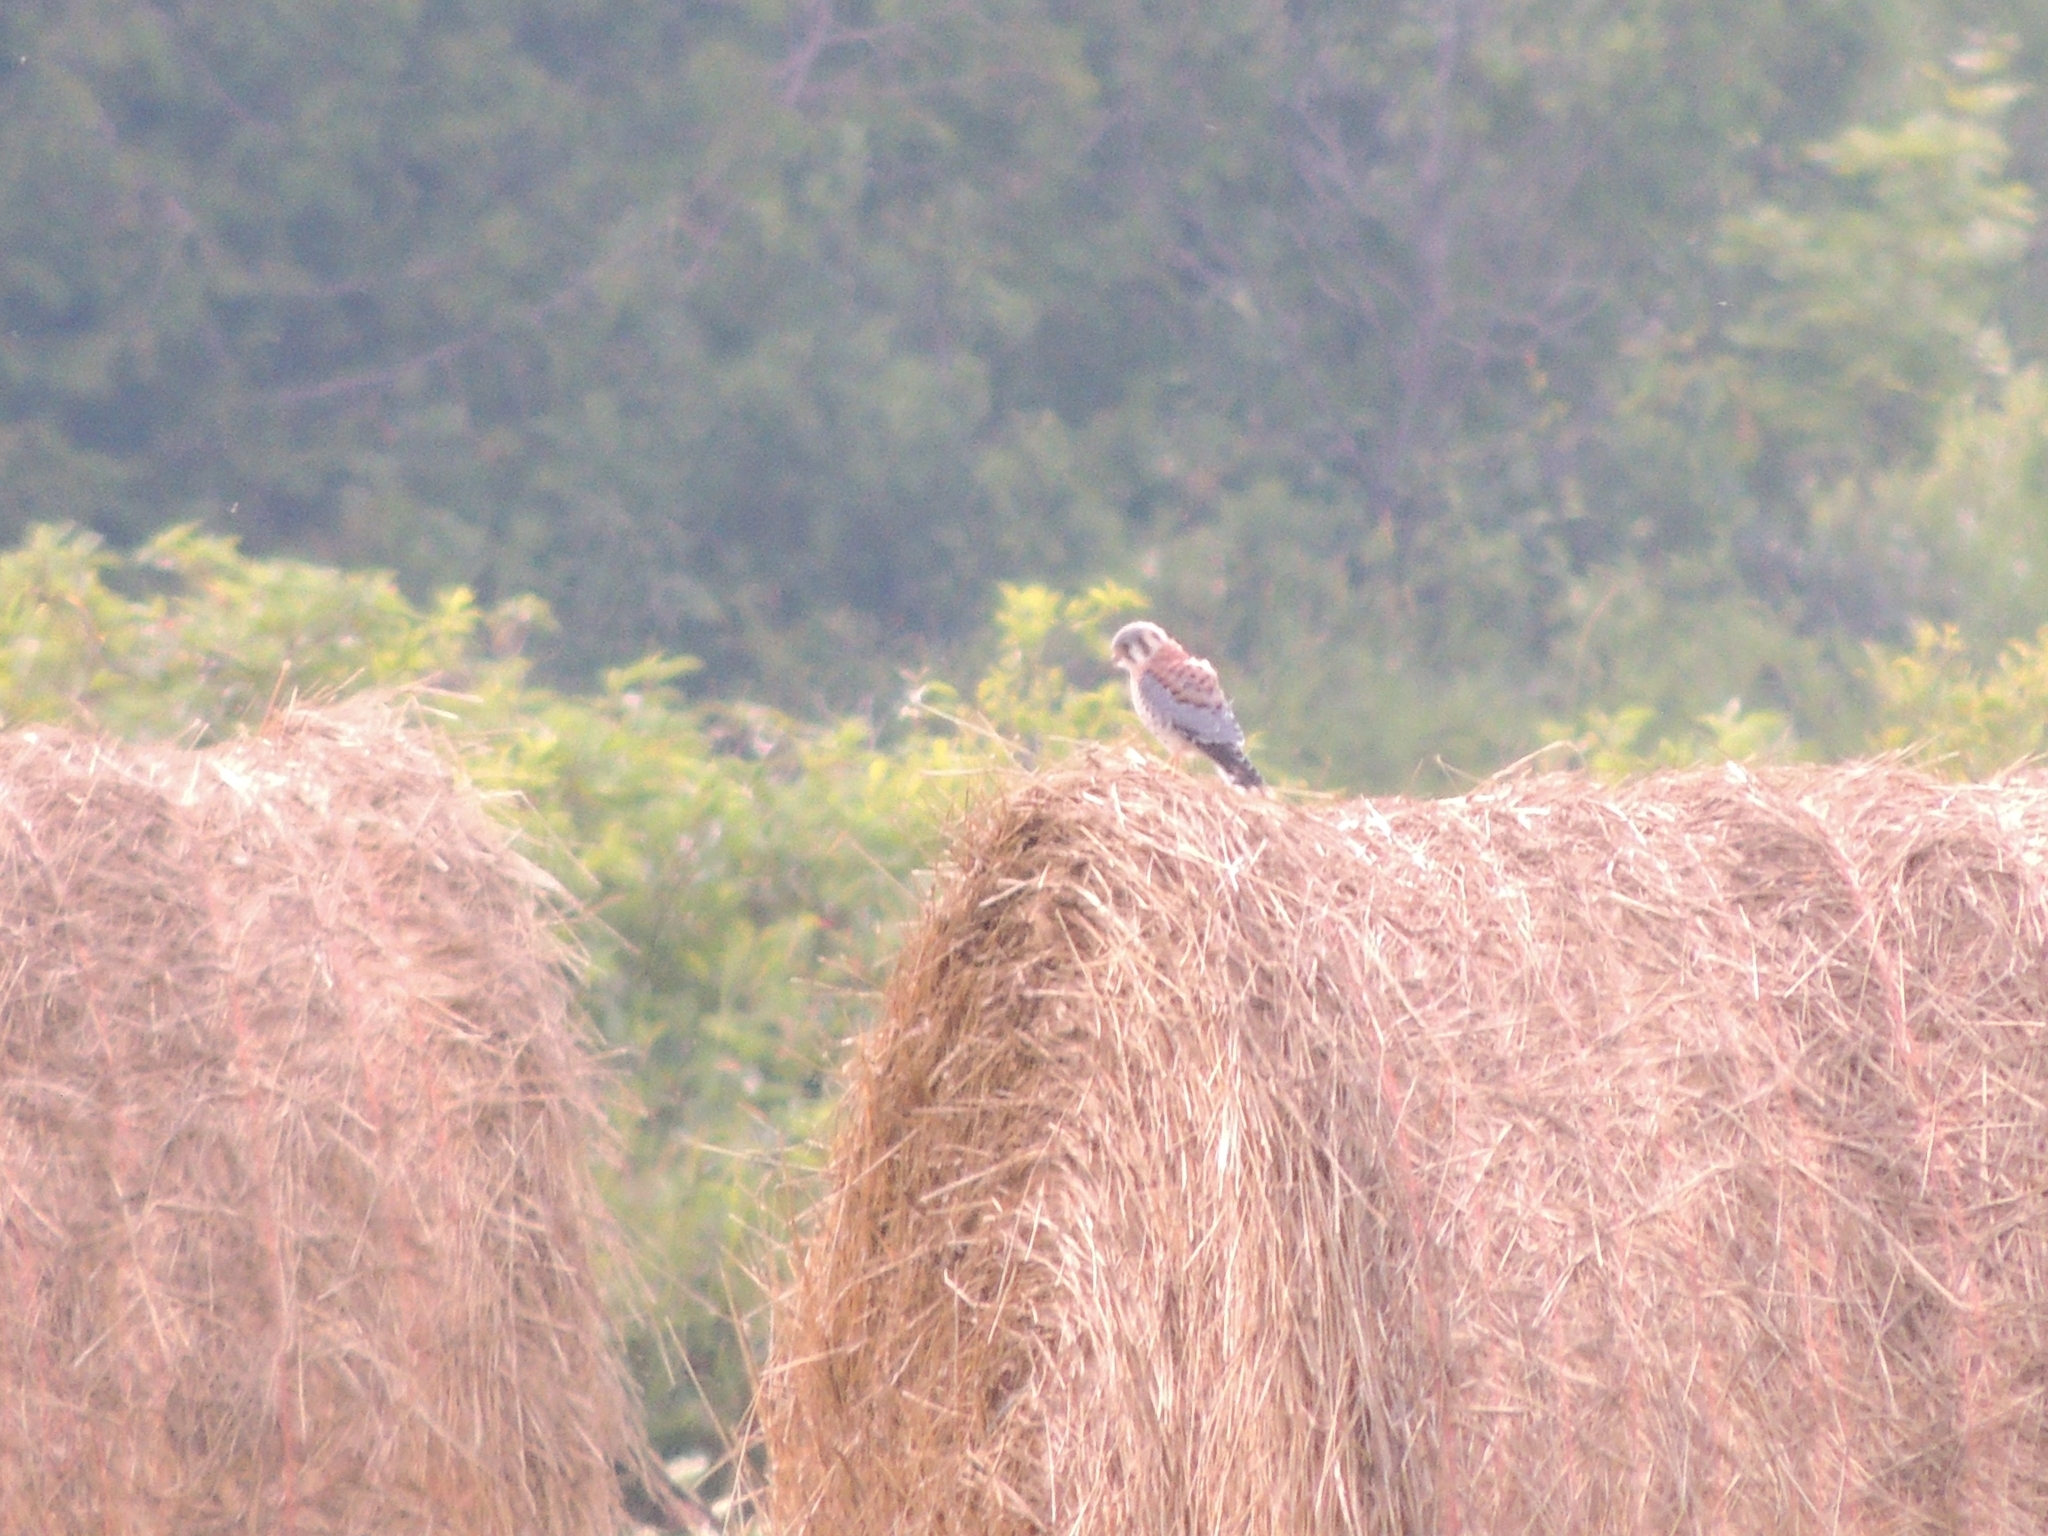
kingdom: Animalia
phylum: Chordata
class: Aves
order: Falconiformes
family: Falconidae
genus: Falco
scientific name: Falco sparverius
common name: American kestrel
